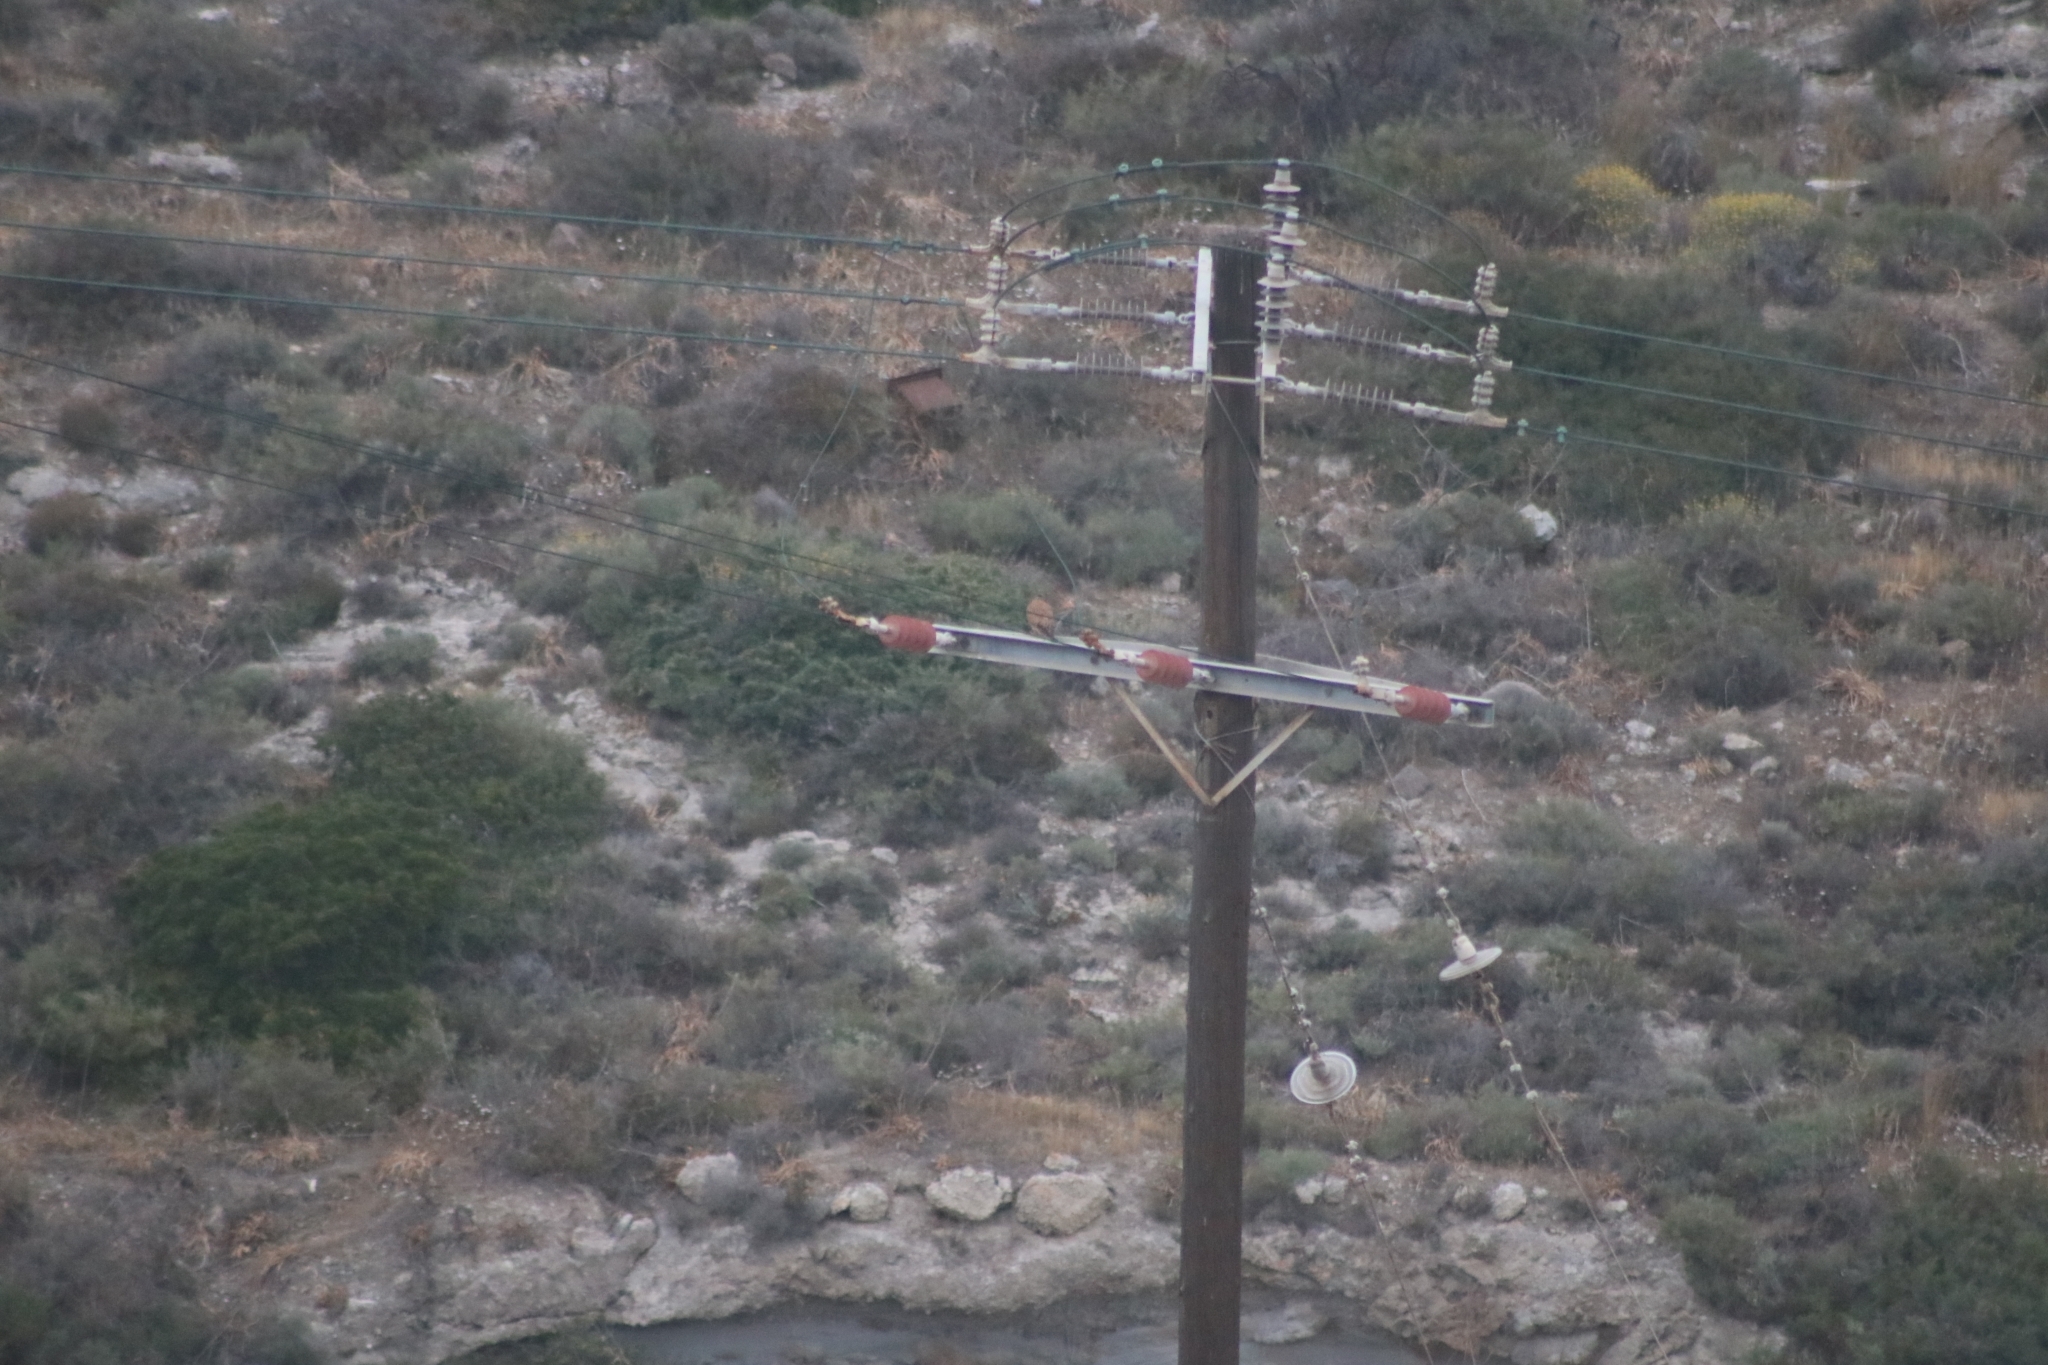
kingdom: Animalia
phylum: Chordata
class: Aves
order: Falconiformes
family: Falconidae
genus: Falco
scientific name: Falco tinnunculus
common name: Common kestrel
